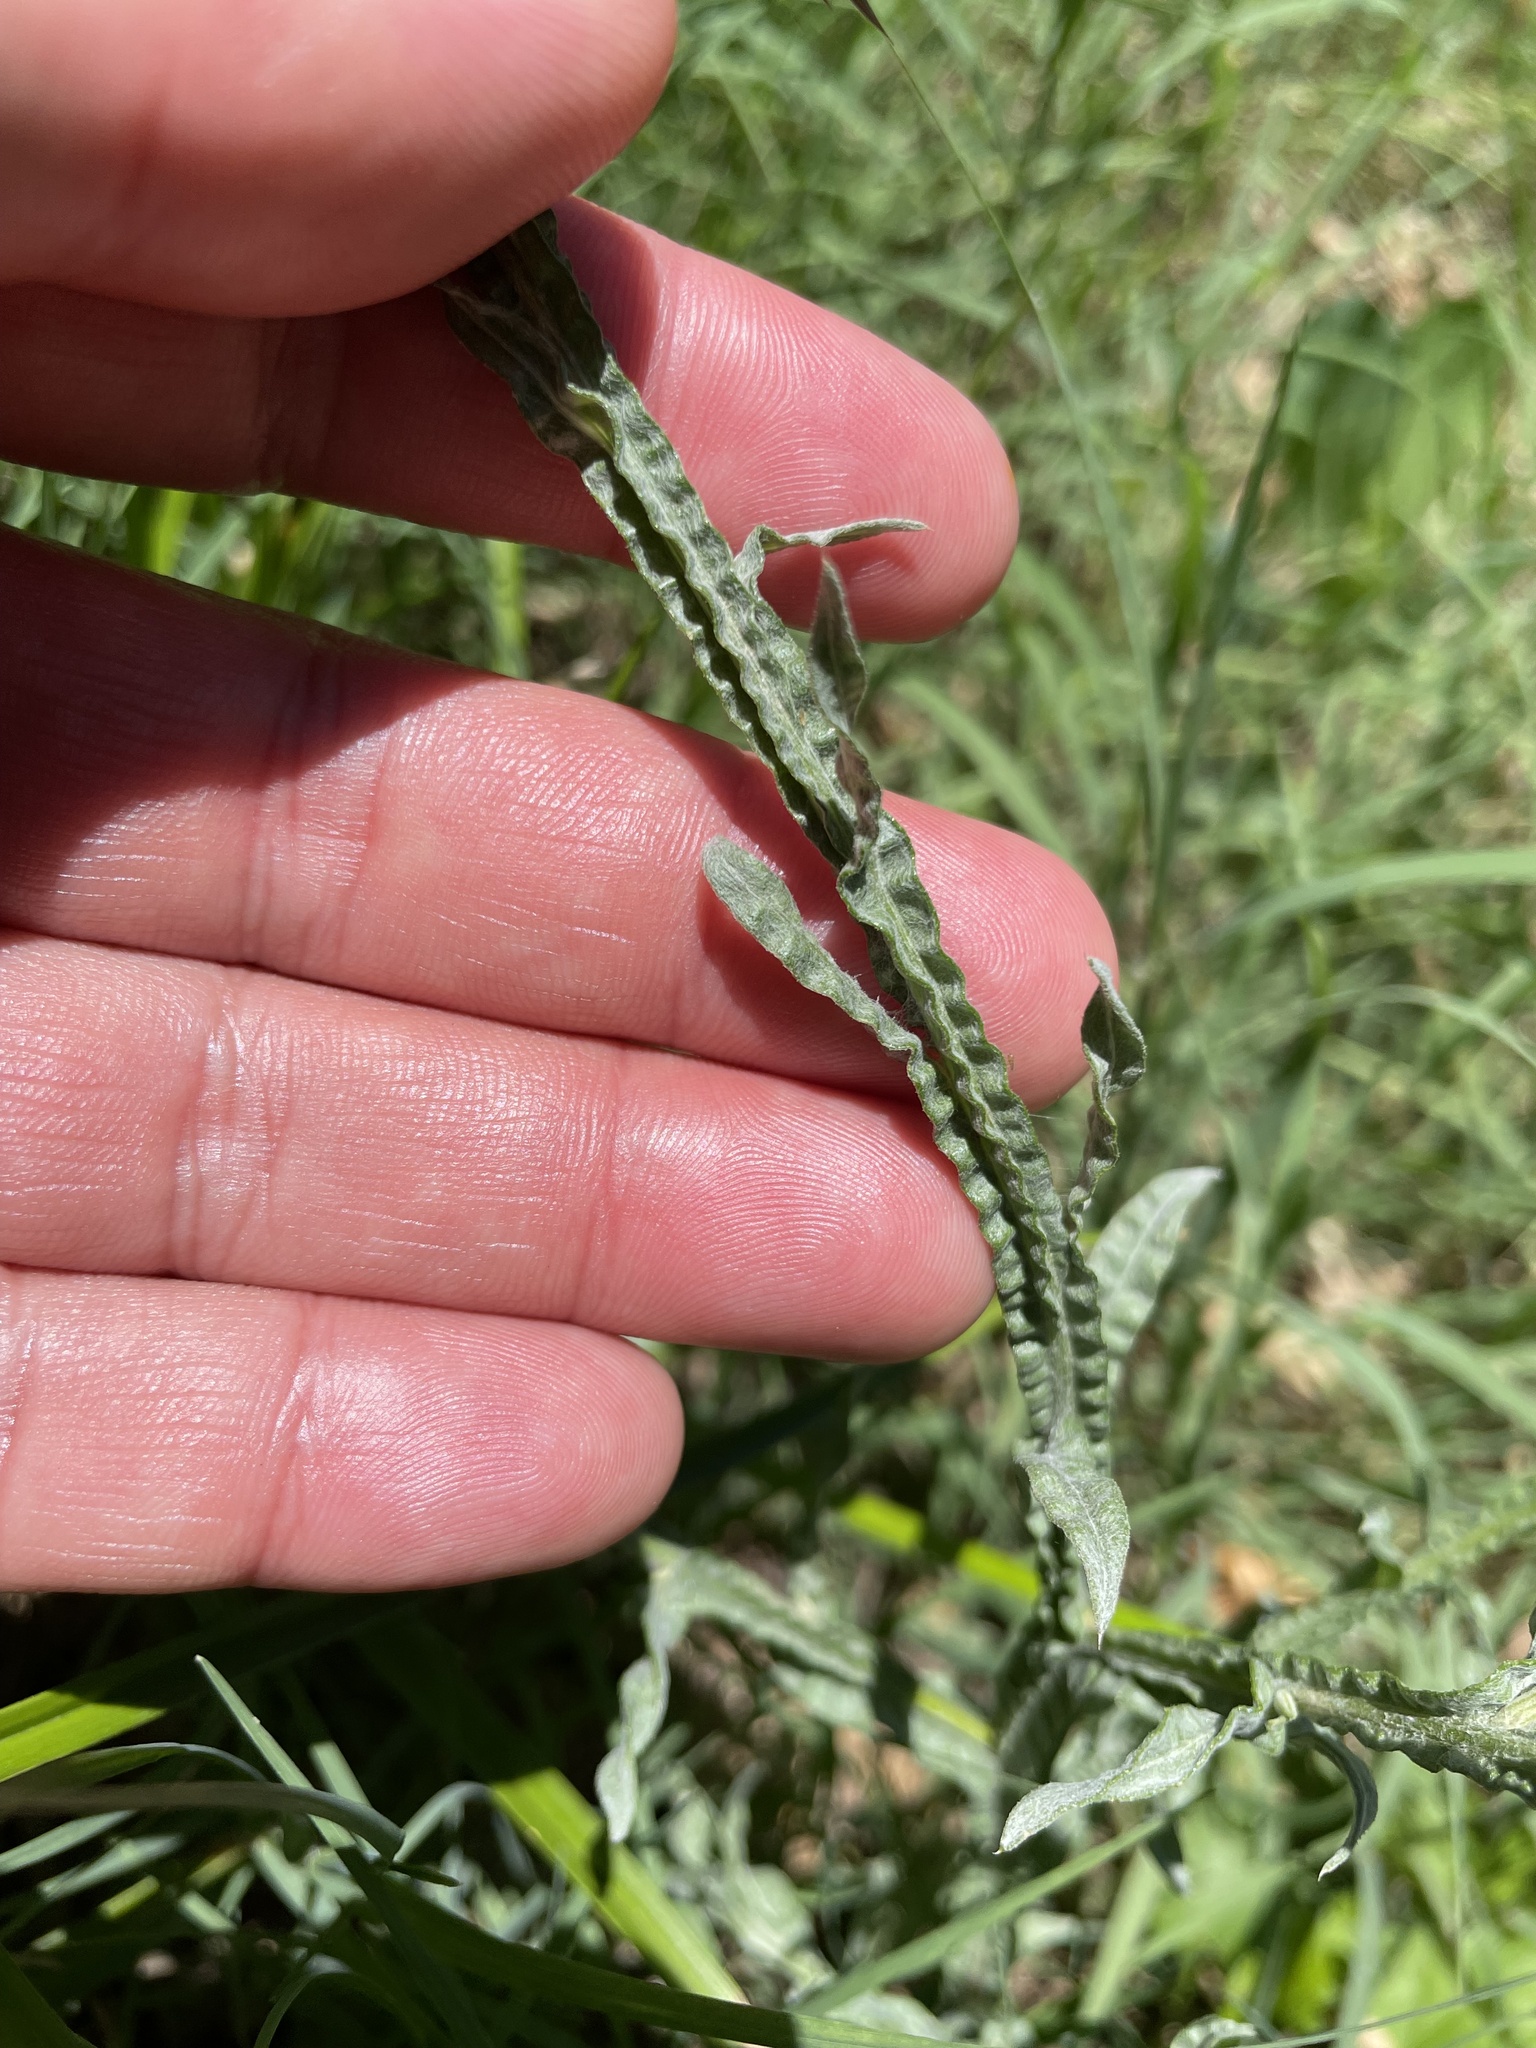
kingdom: Plantae
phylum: Tracheophyta
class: Magnoliopsida
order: Asterales
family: Asteraceae
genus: Centaurea
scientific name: Centaurea solstitialis
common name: Yellow star-thistle
